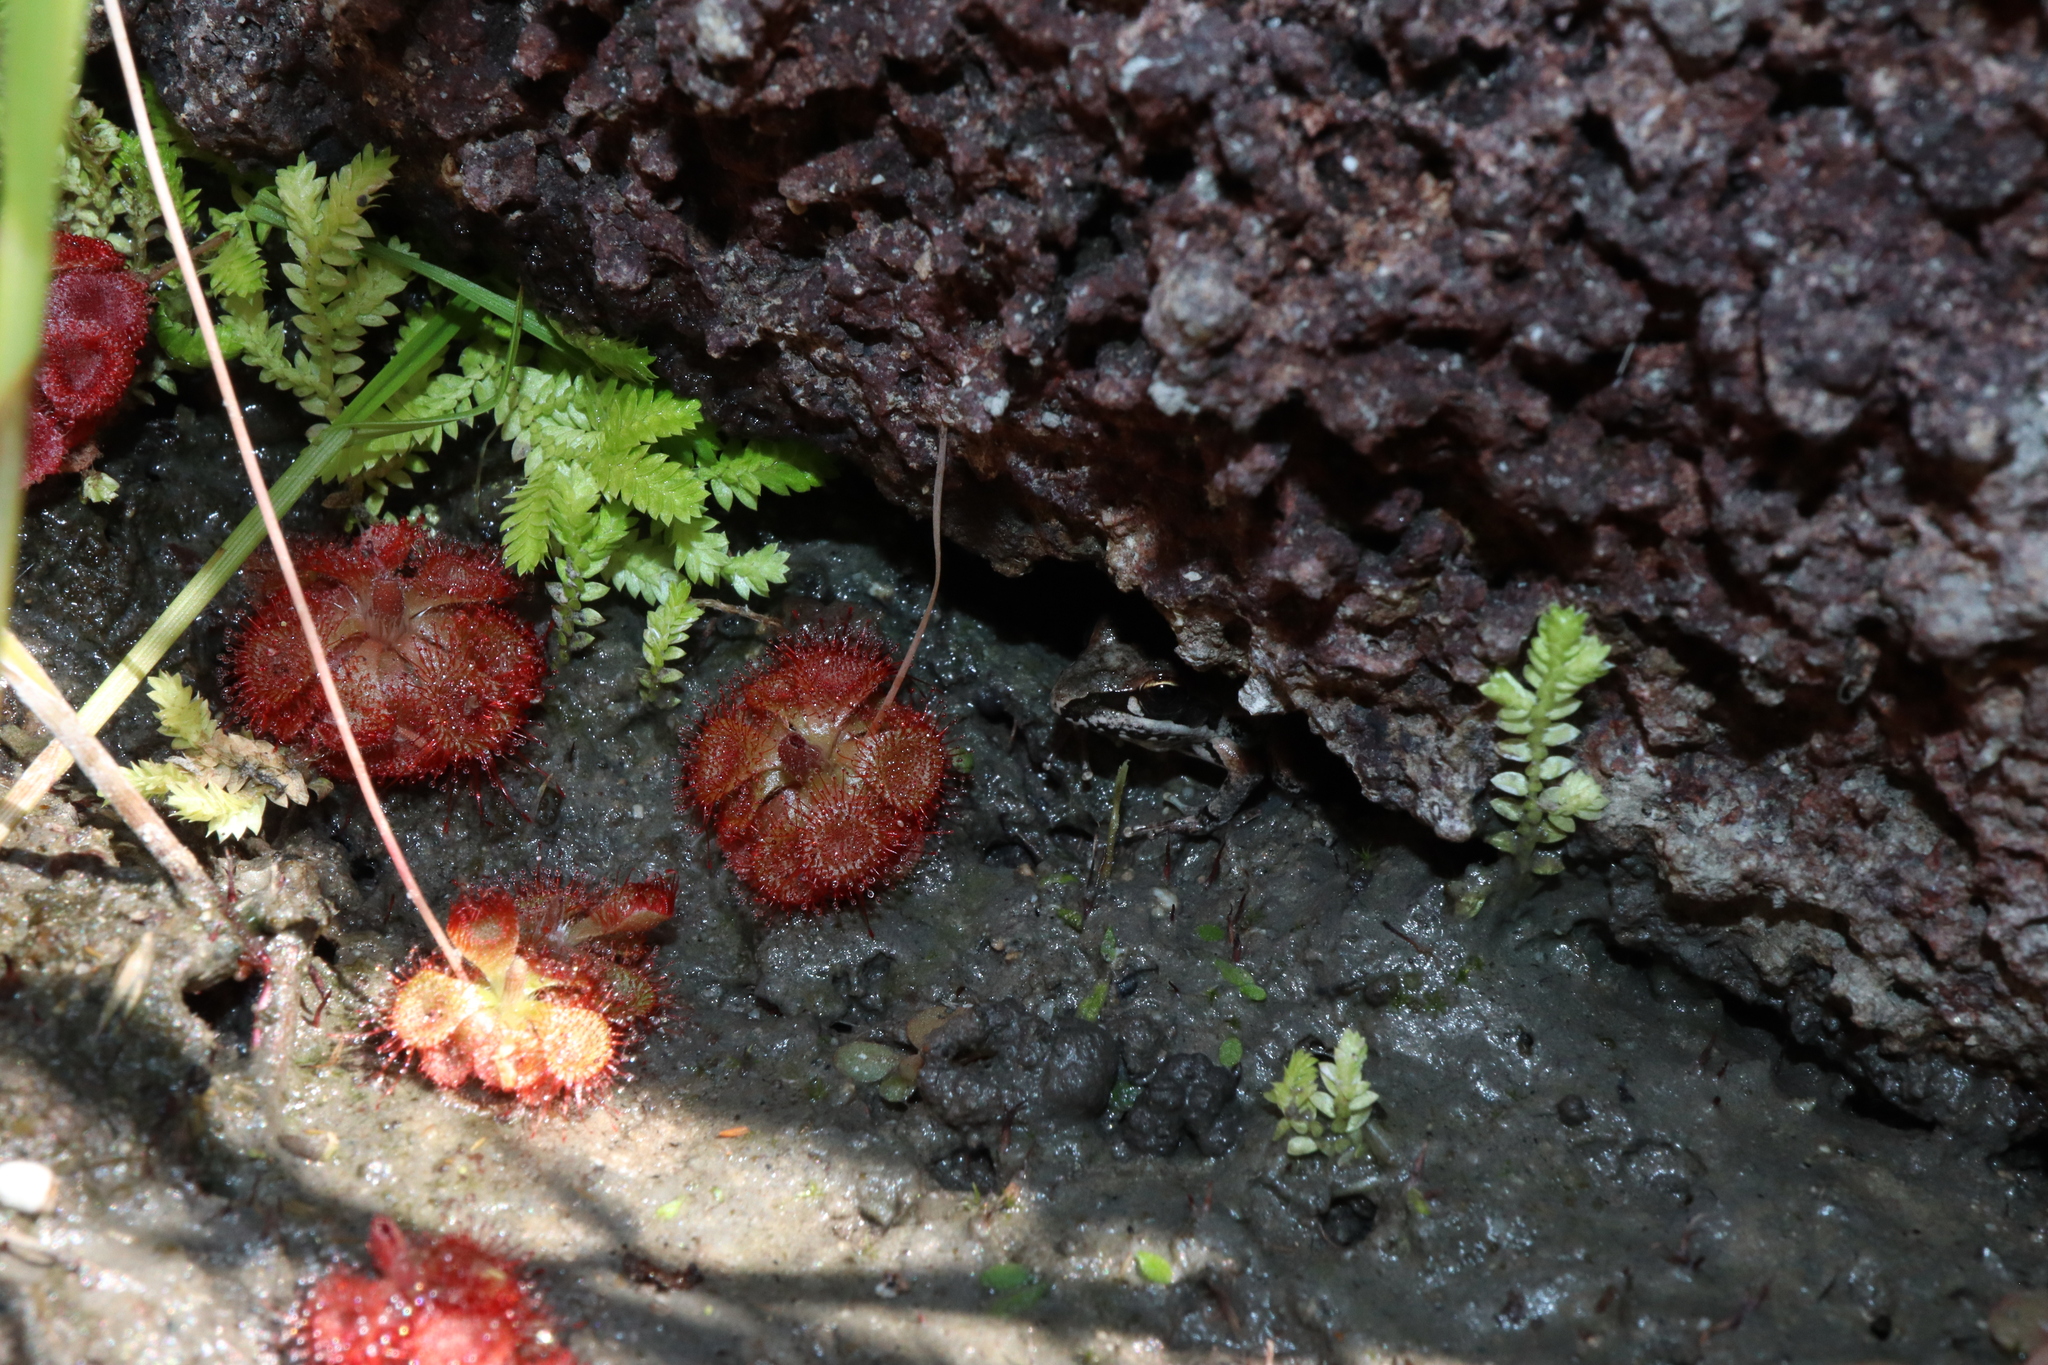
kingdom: Plantae
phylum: Tracheophyta
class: Lycopodiopsida
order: Selaginellales
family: Selaginellaceae
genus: Selaginella
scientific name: Selaginella ciliaris
